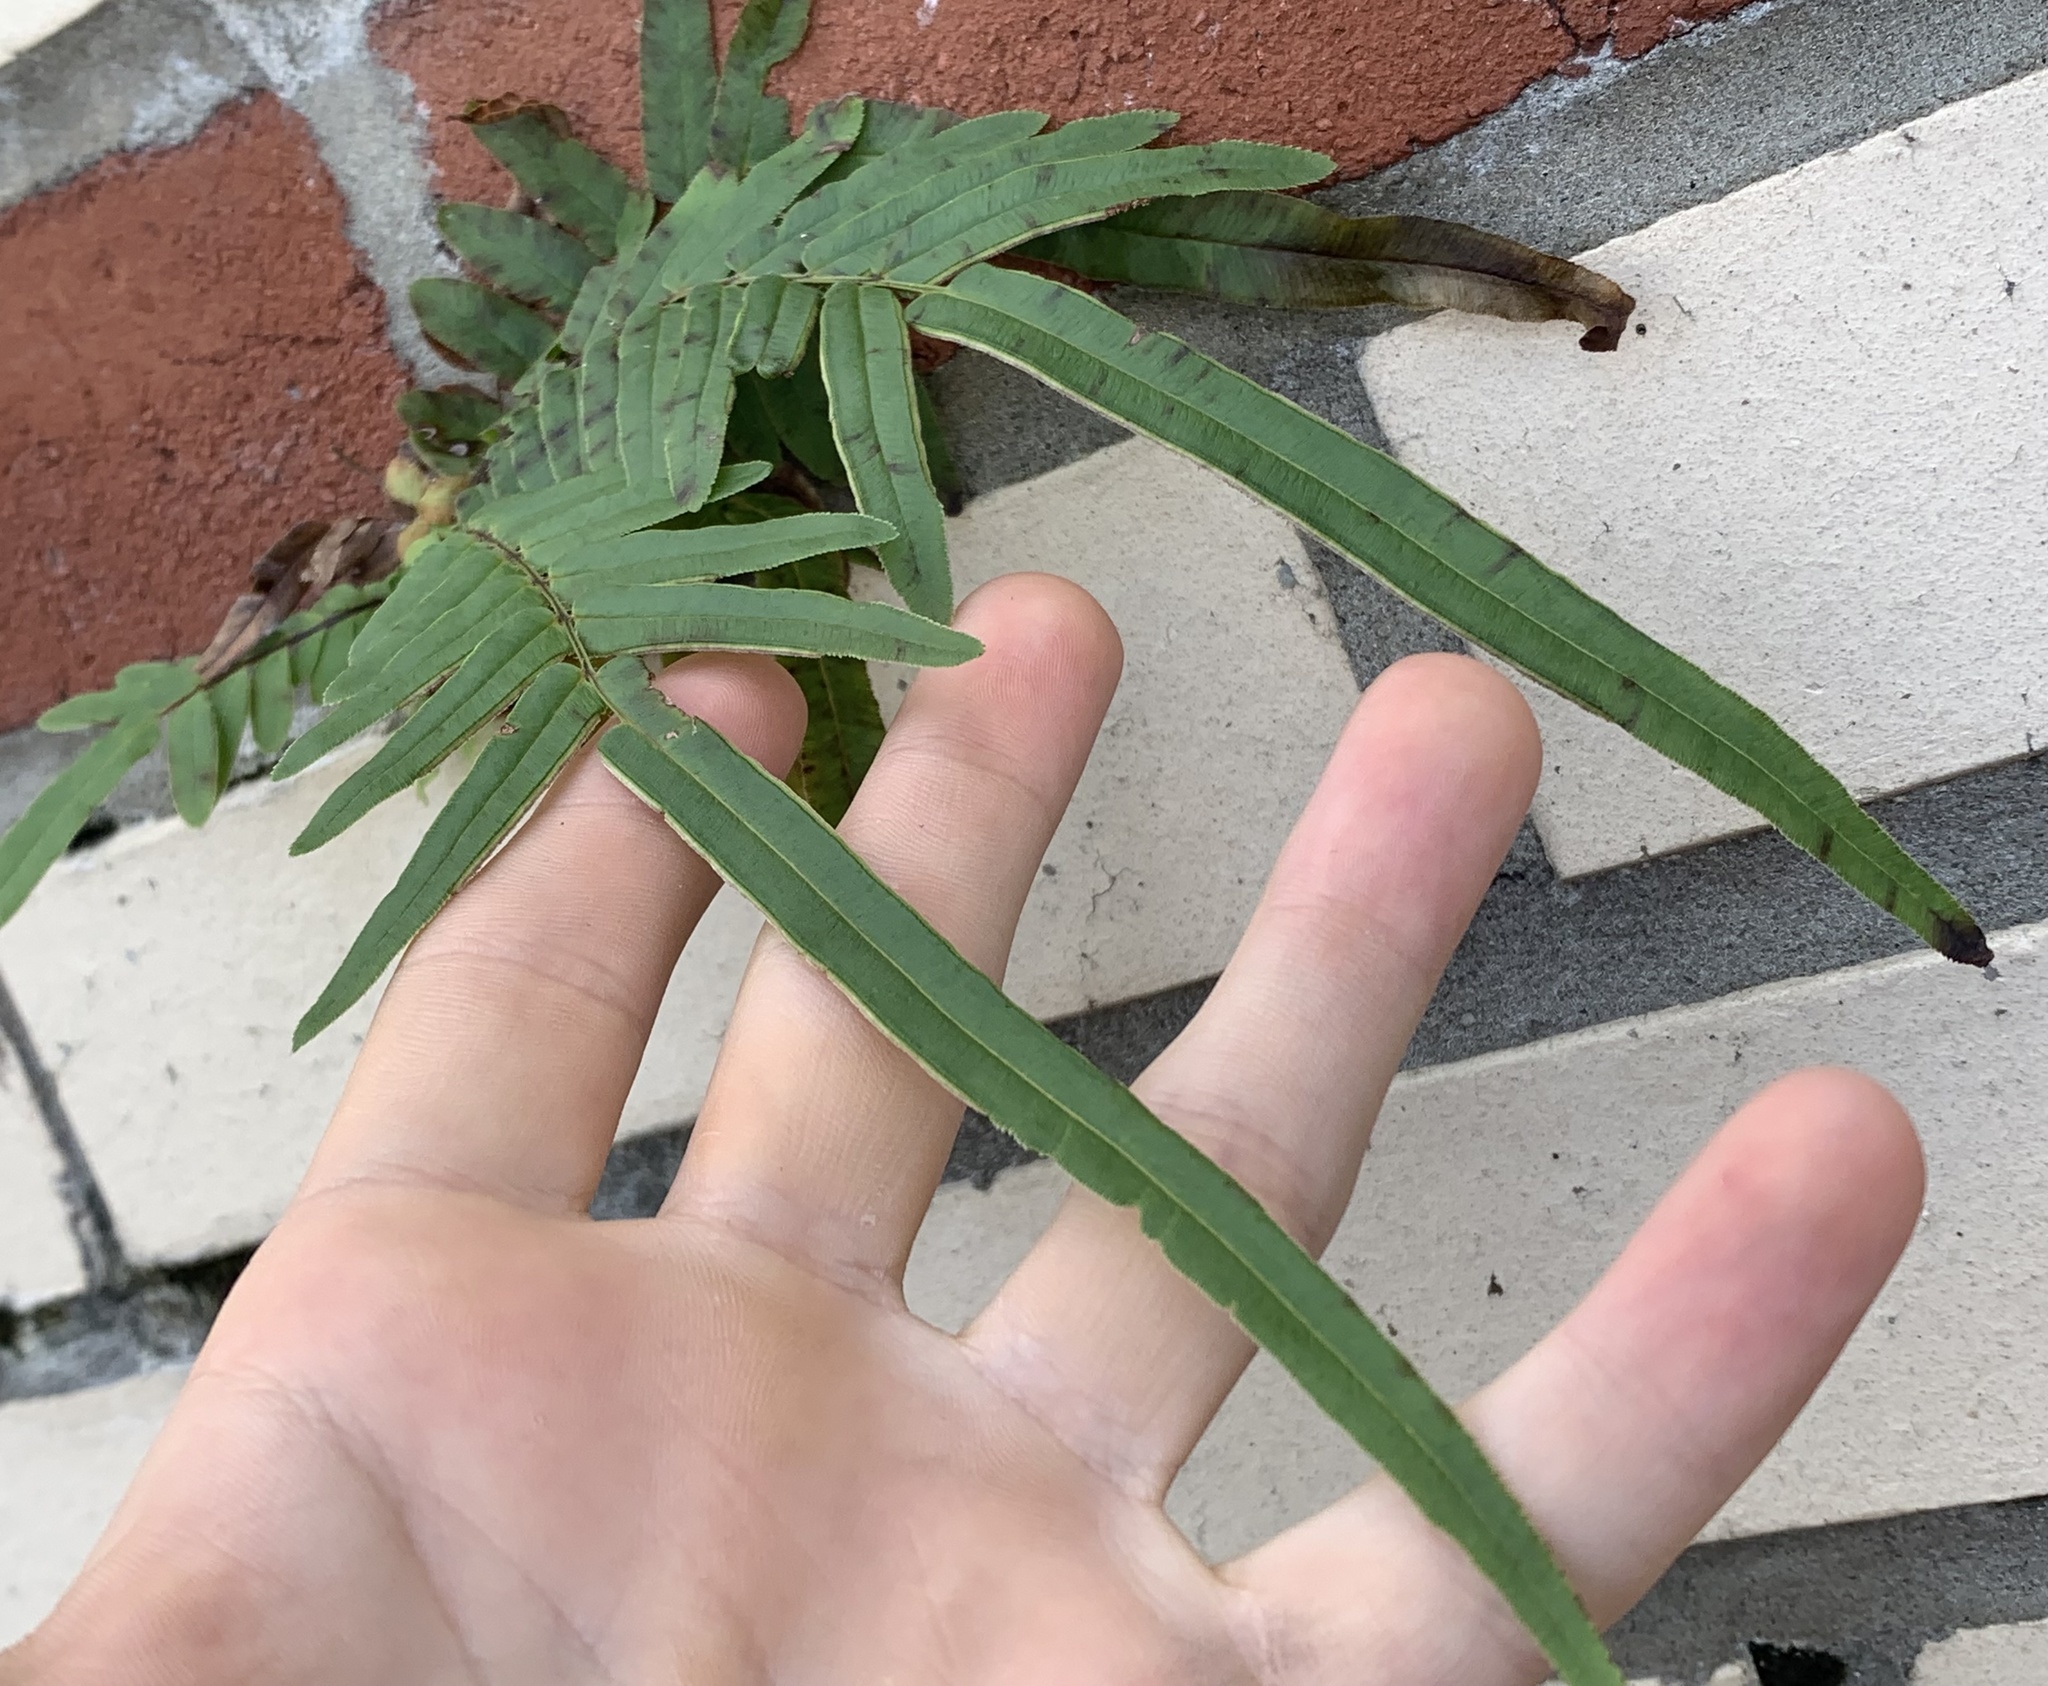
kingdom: Plantae
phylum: Tracheophyta
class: Polypodiopsida
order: Polypodiales
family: Pteridaceae
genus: Pteris
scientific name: Pteris vittata
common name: Ladder brake
